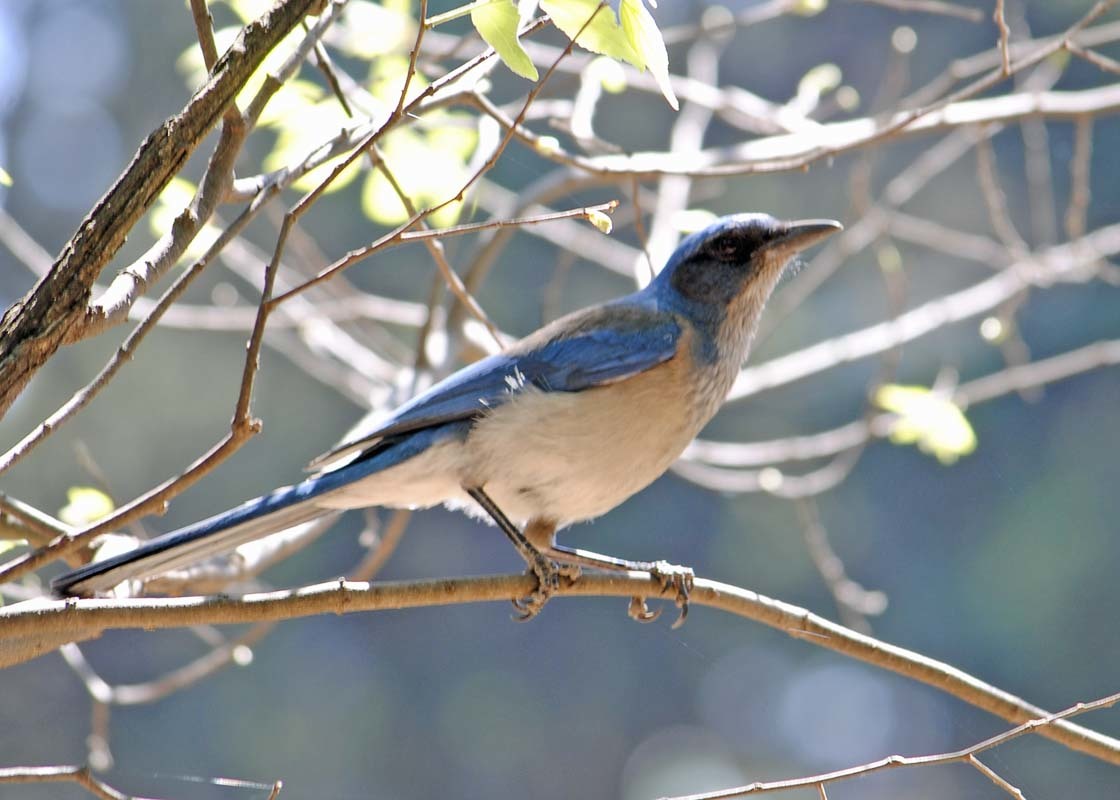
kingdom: Animalia
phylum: Chordata
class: Aves
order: Passeriformes
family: Corvidae
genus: Aphelocoma
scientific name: Aphelocoma woodhouseii
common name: Woodhouse's scrub-jay
